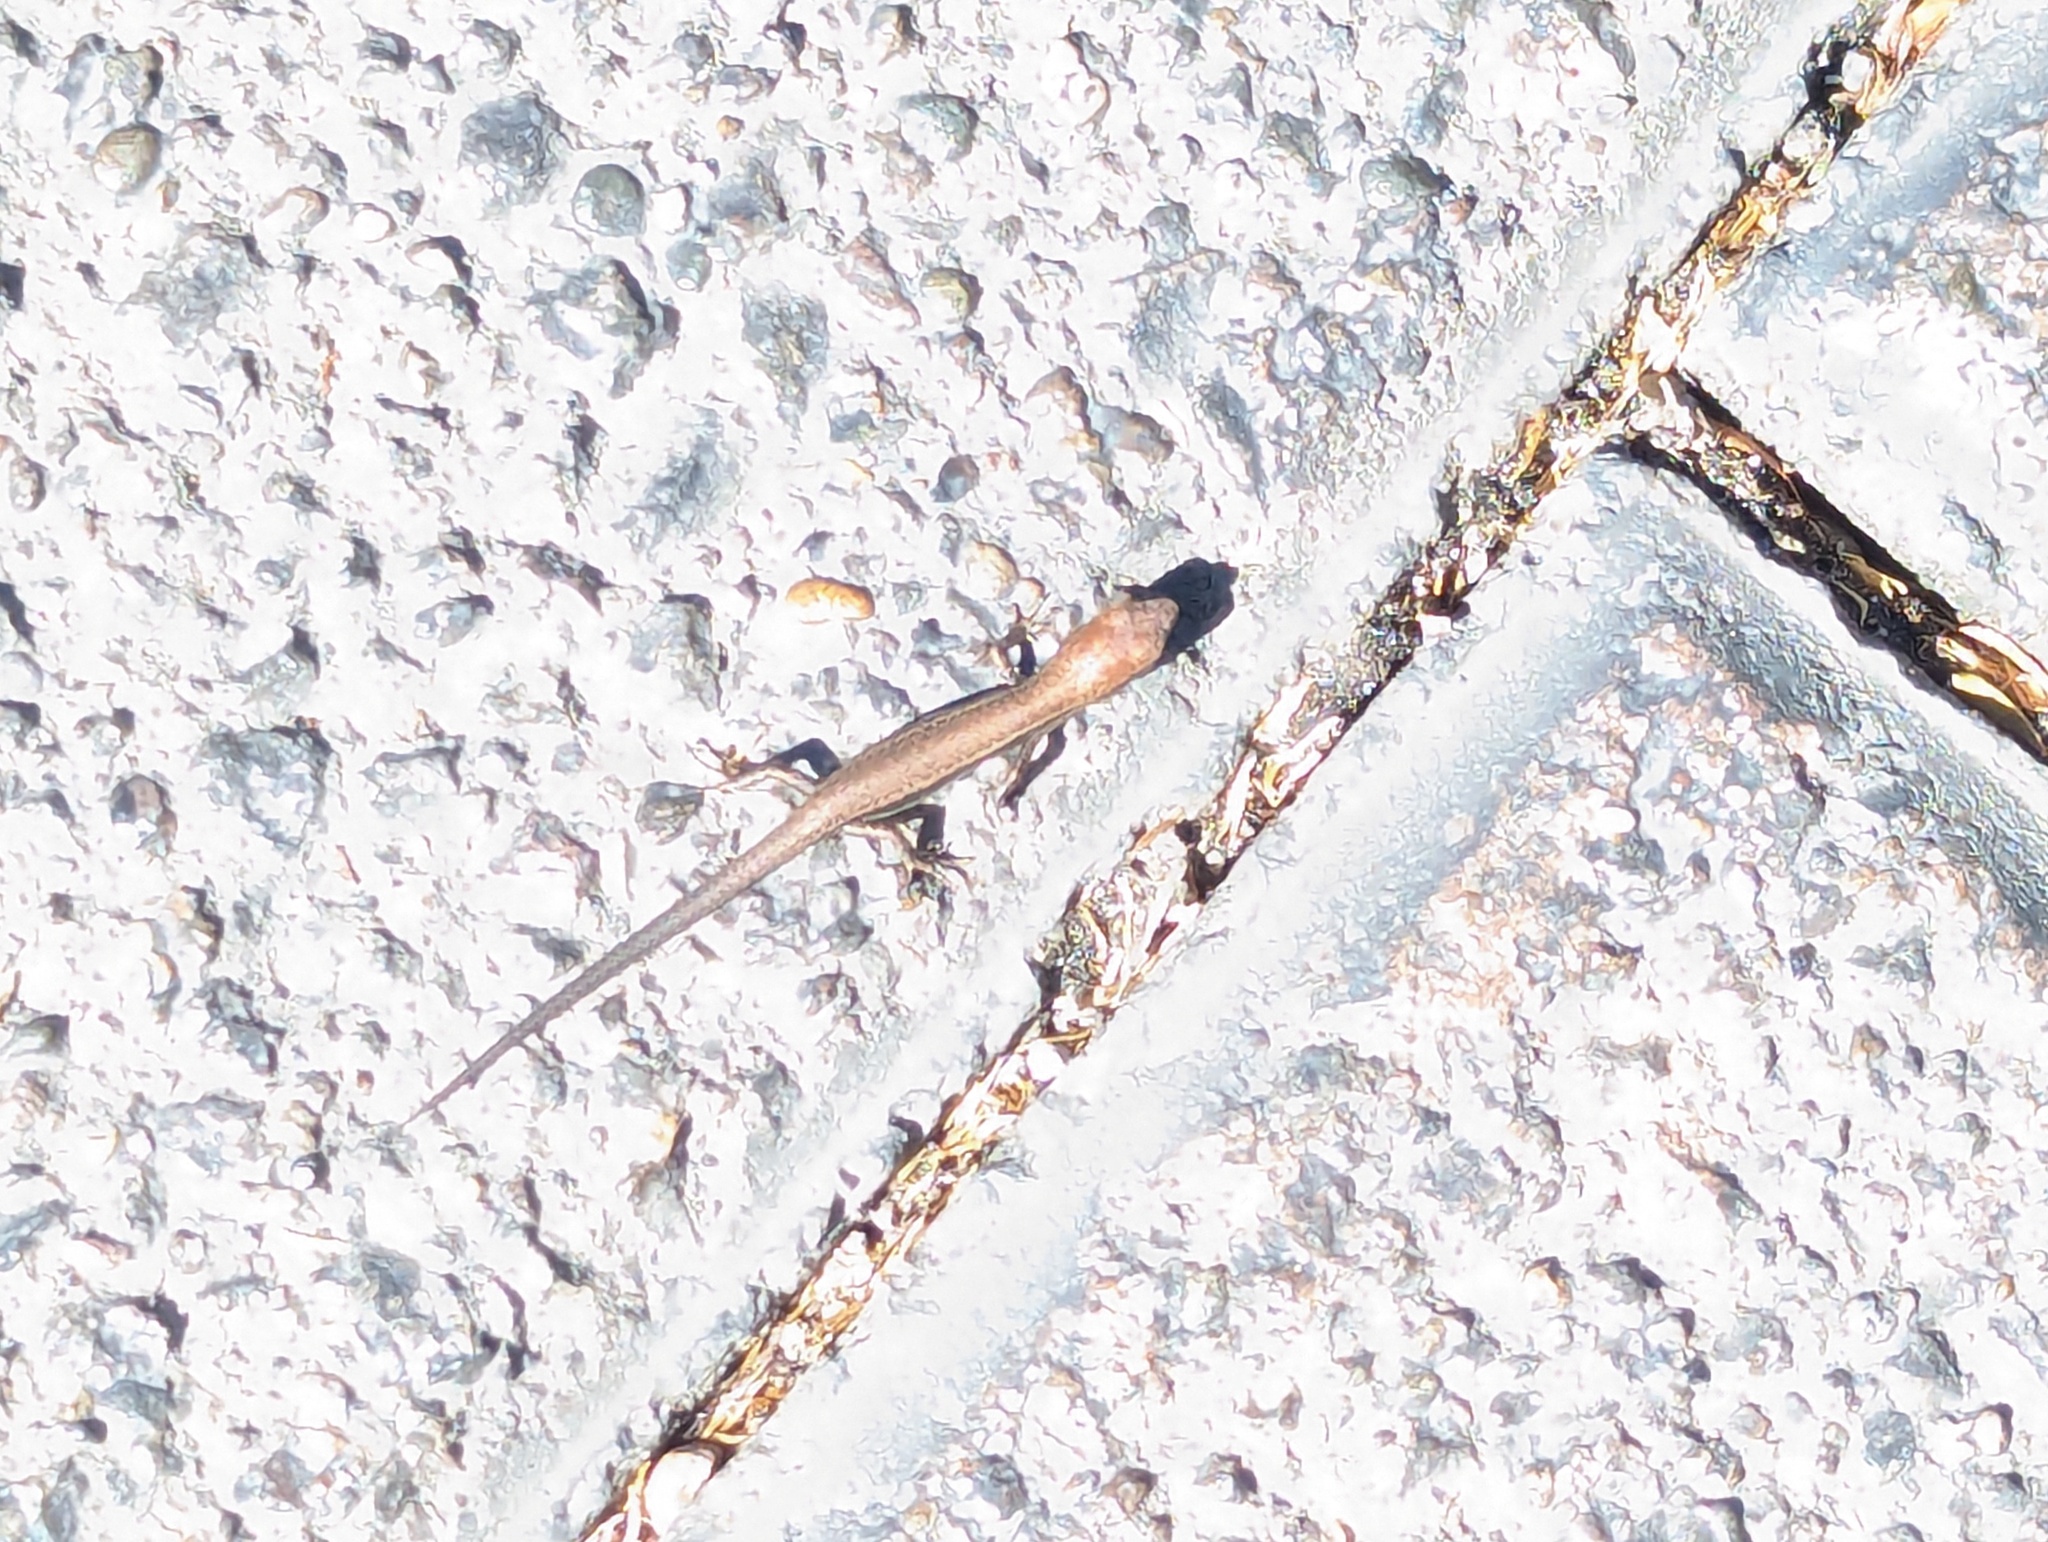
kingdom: Animalia
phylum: Chordata
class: Squamata
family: Scincidae
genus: Lampropholis
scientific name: Lampropholis delicata
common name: Plague skink
